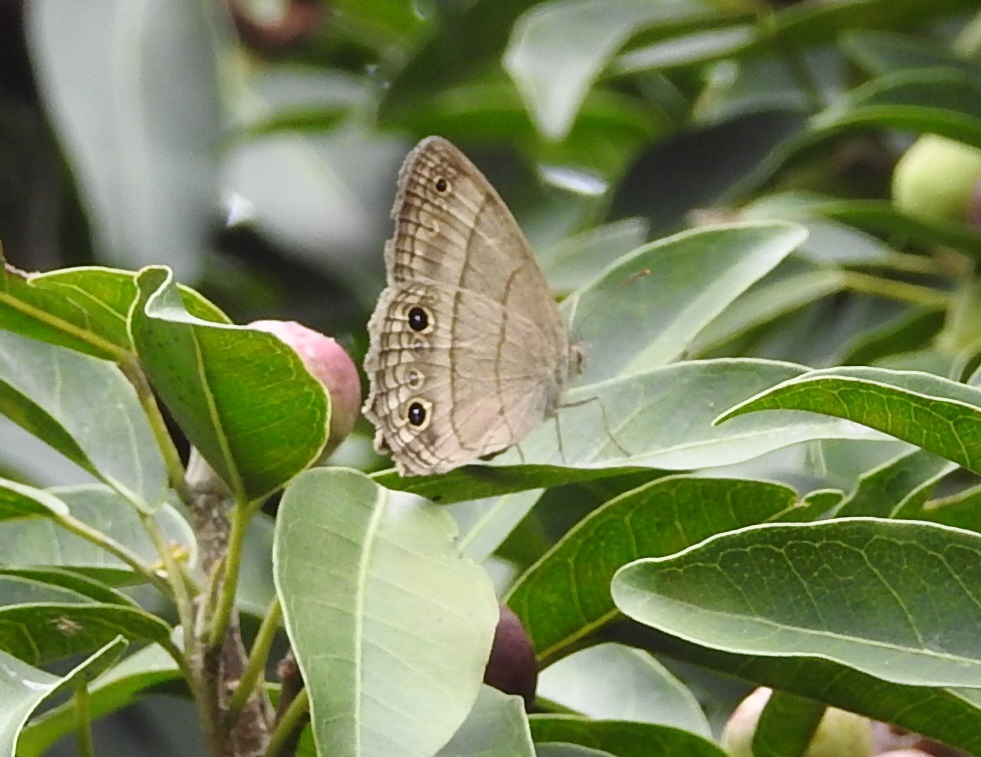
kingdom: Animalia
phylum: Arthropoda
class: Insecta
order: Lepidoptera
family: Nymphalidae
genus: Vareuptychia
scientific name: Vareuptychia similis
